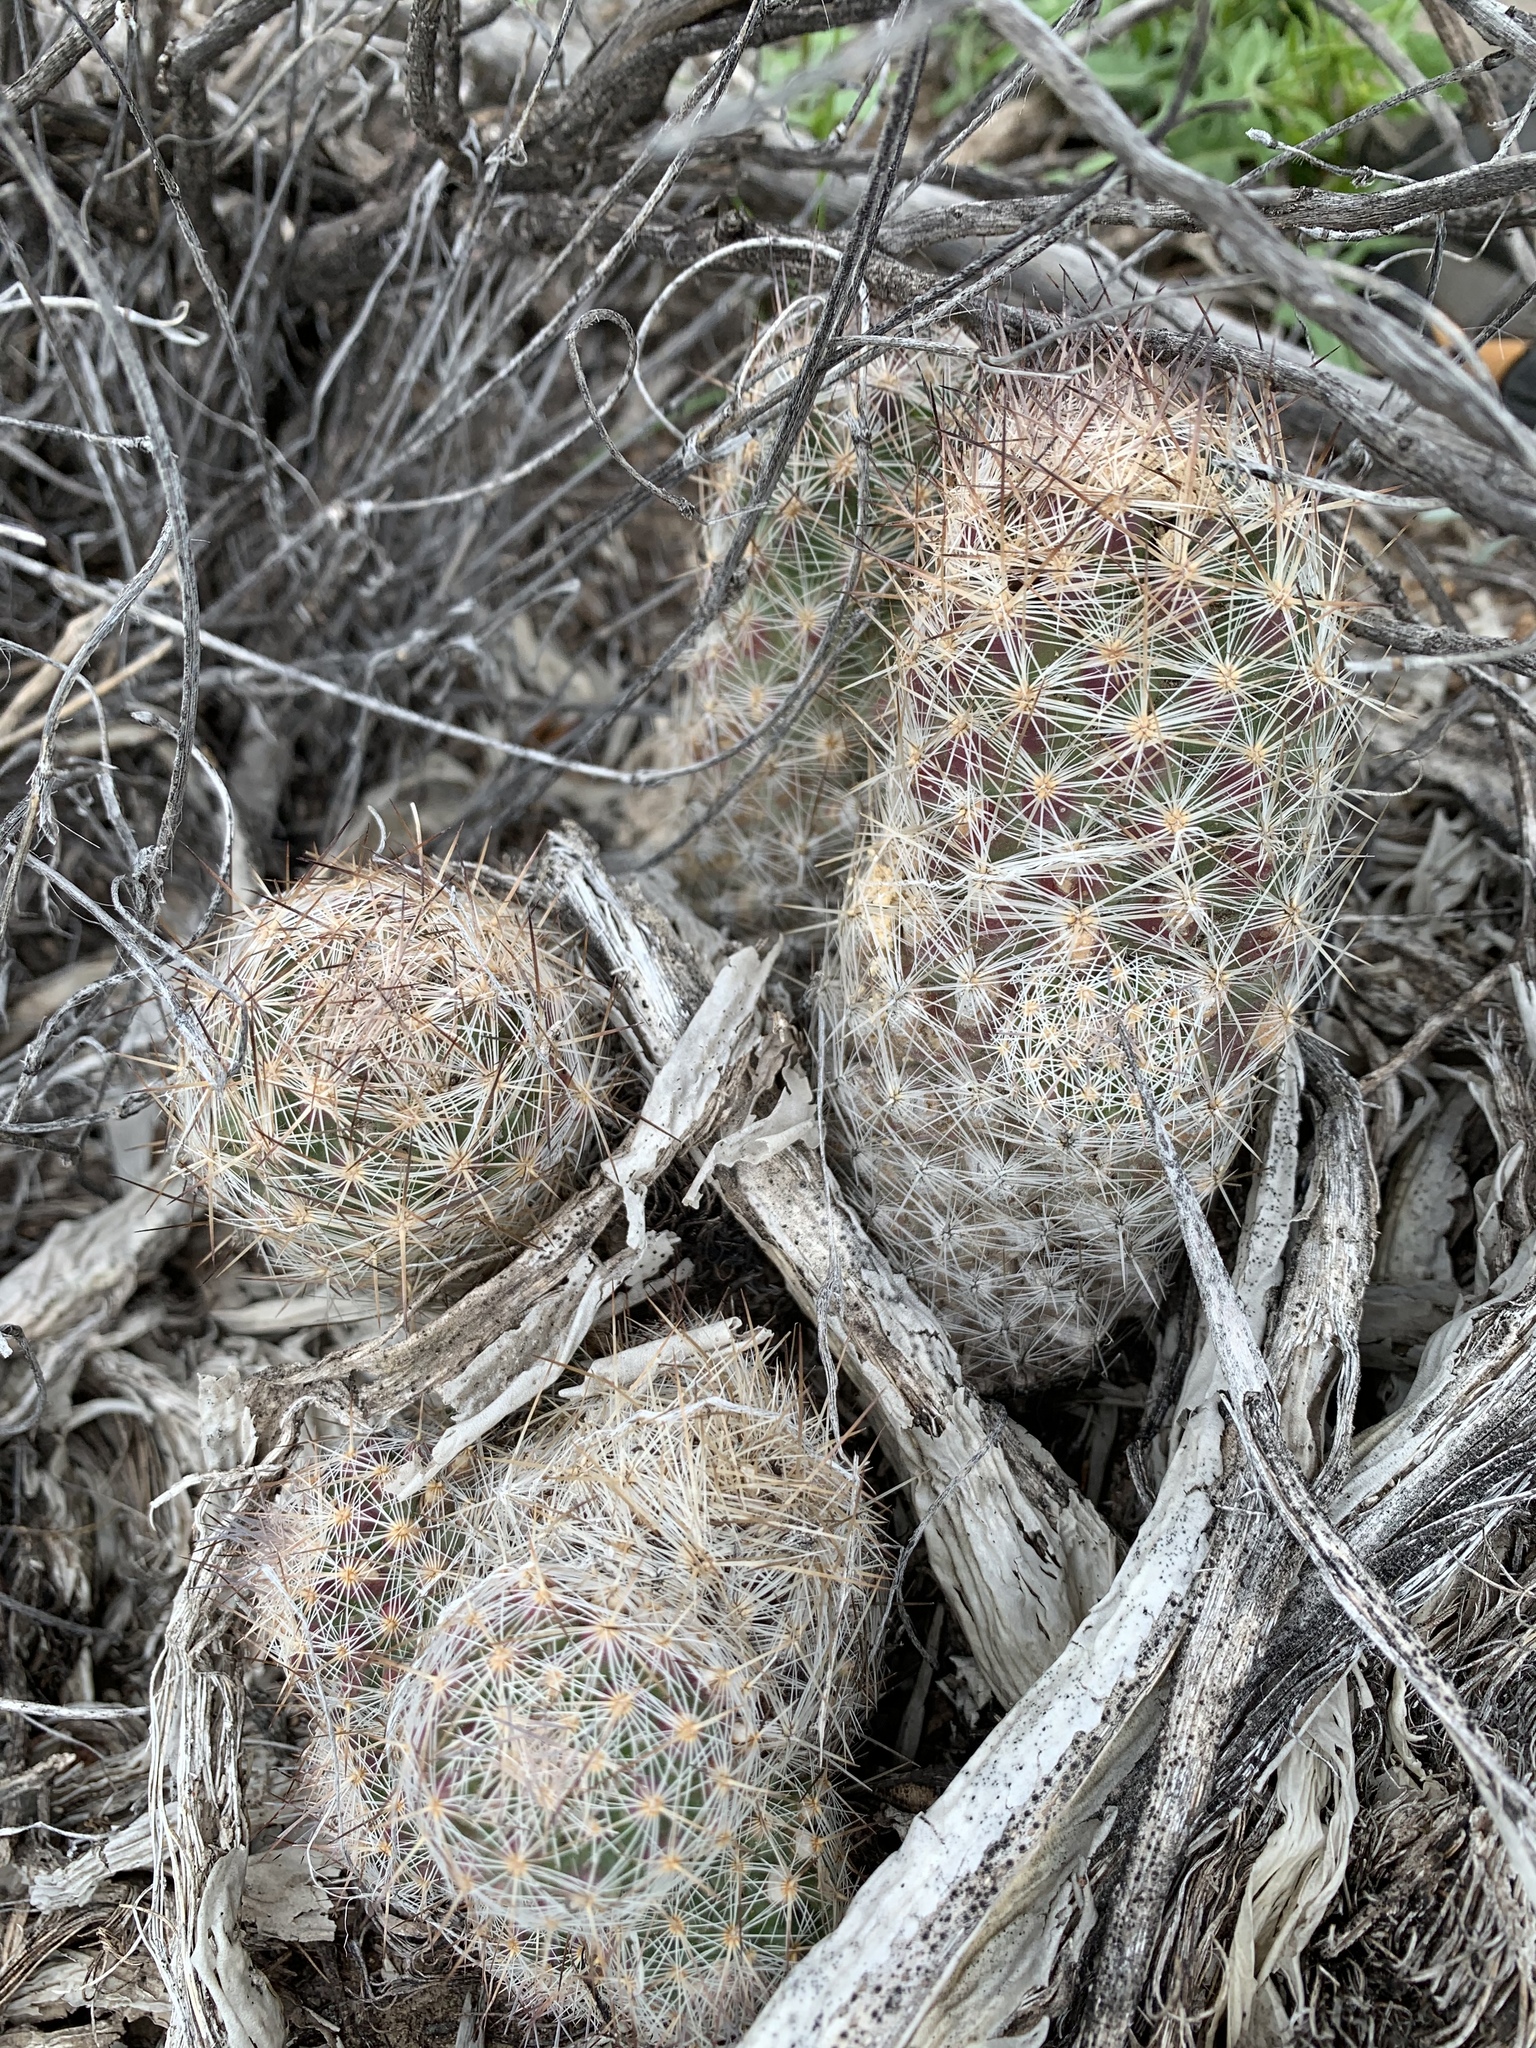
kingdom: Plantae
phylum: Tracheophyta
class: Magnoliopsida
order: Caryophyllales
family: Cactaceae
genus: Pelecyphora
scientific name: Pelecyphora tuberculosa
